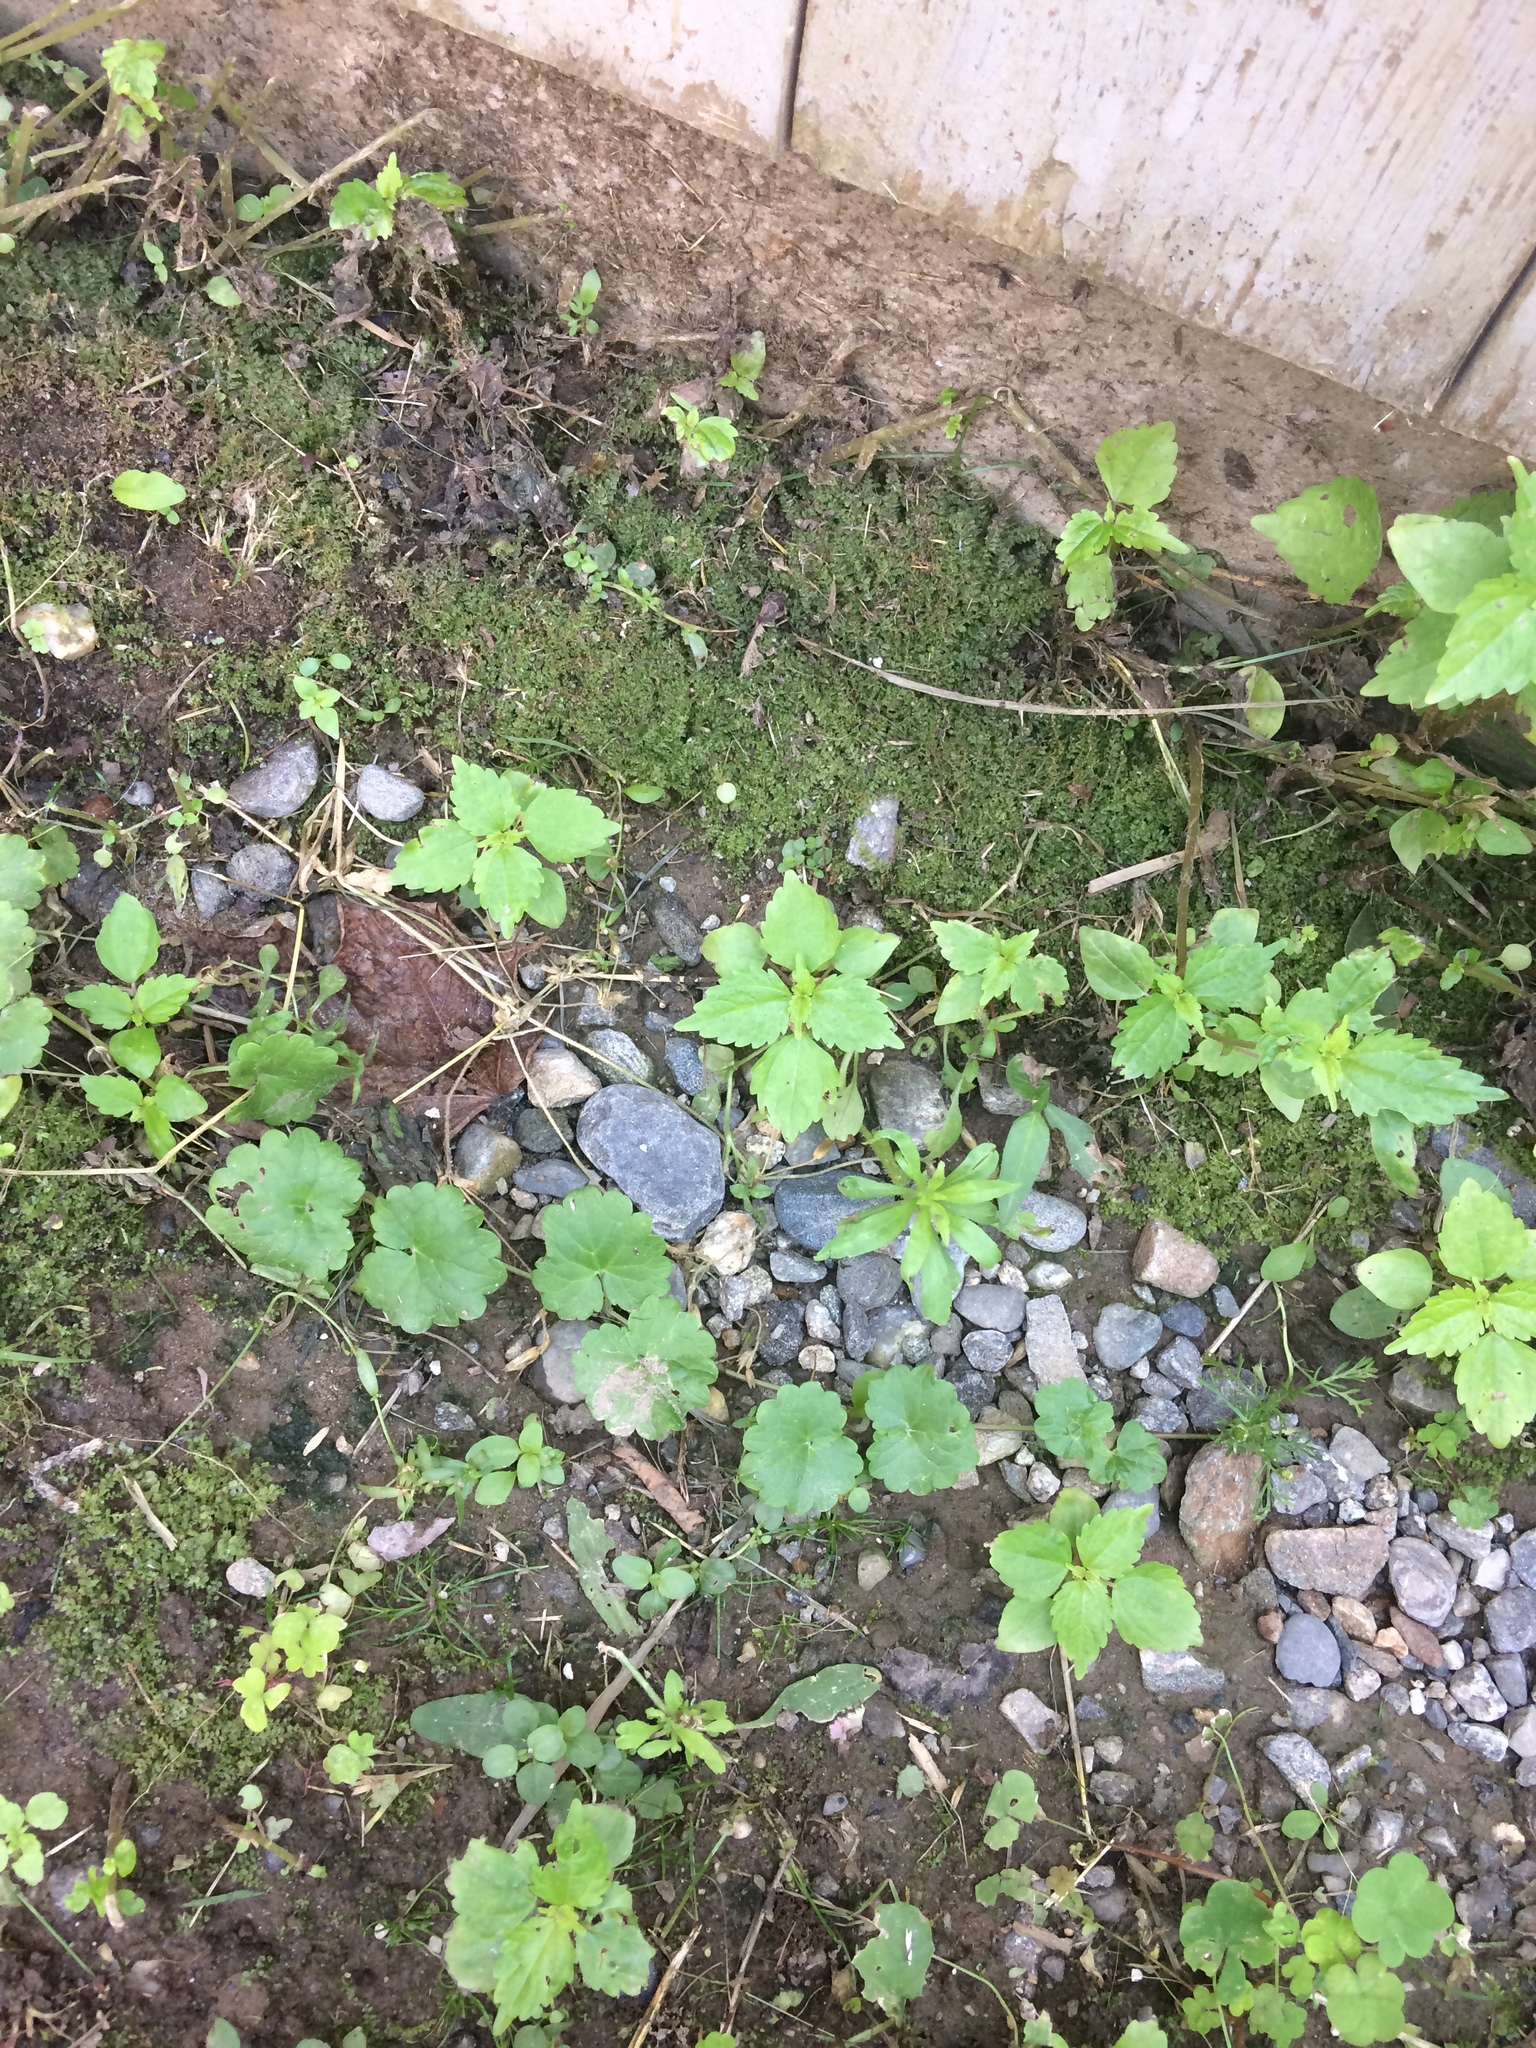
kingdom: Plantae
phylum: Tracheophyta
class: Magnoliopsida
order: Rosales
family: Urticaceae
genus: Pilea
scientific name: Pilea pumila
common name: Clearweed
